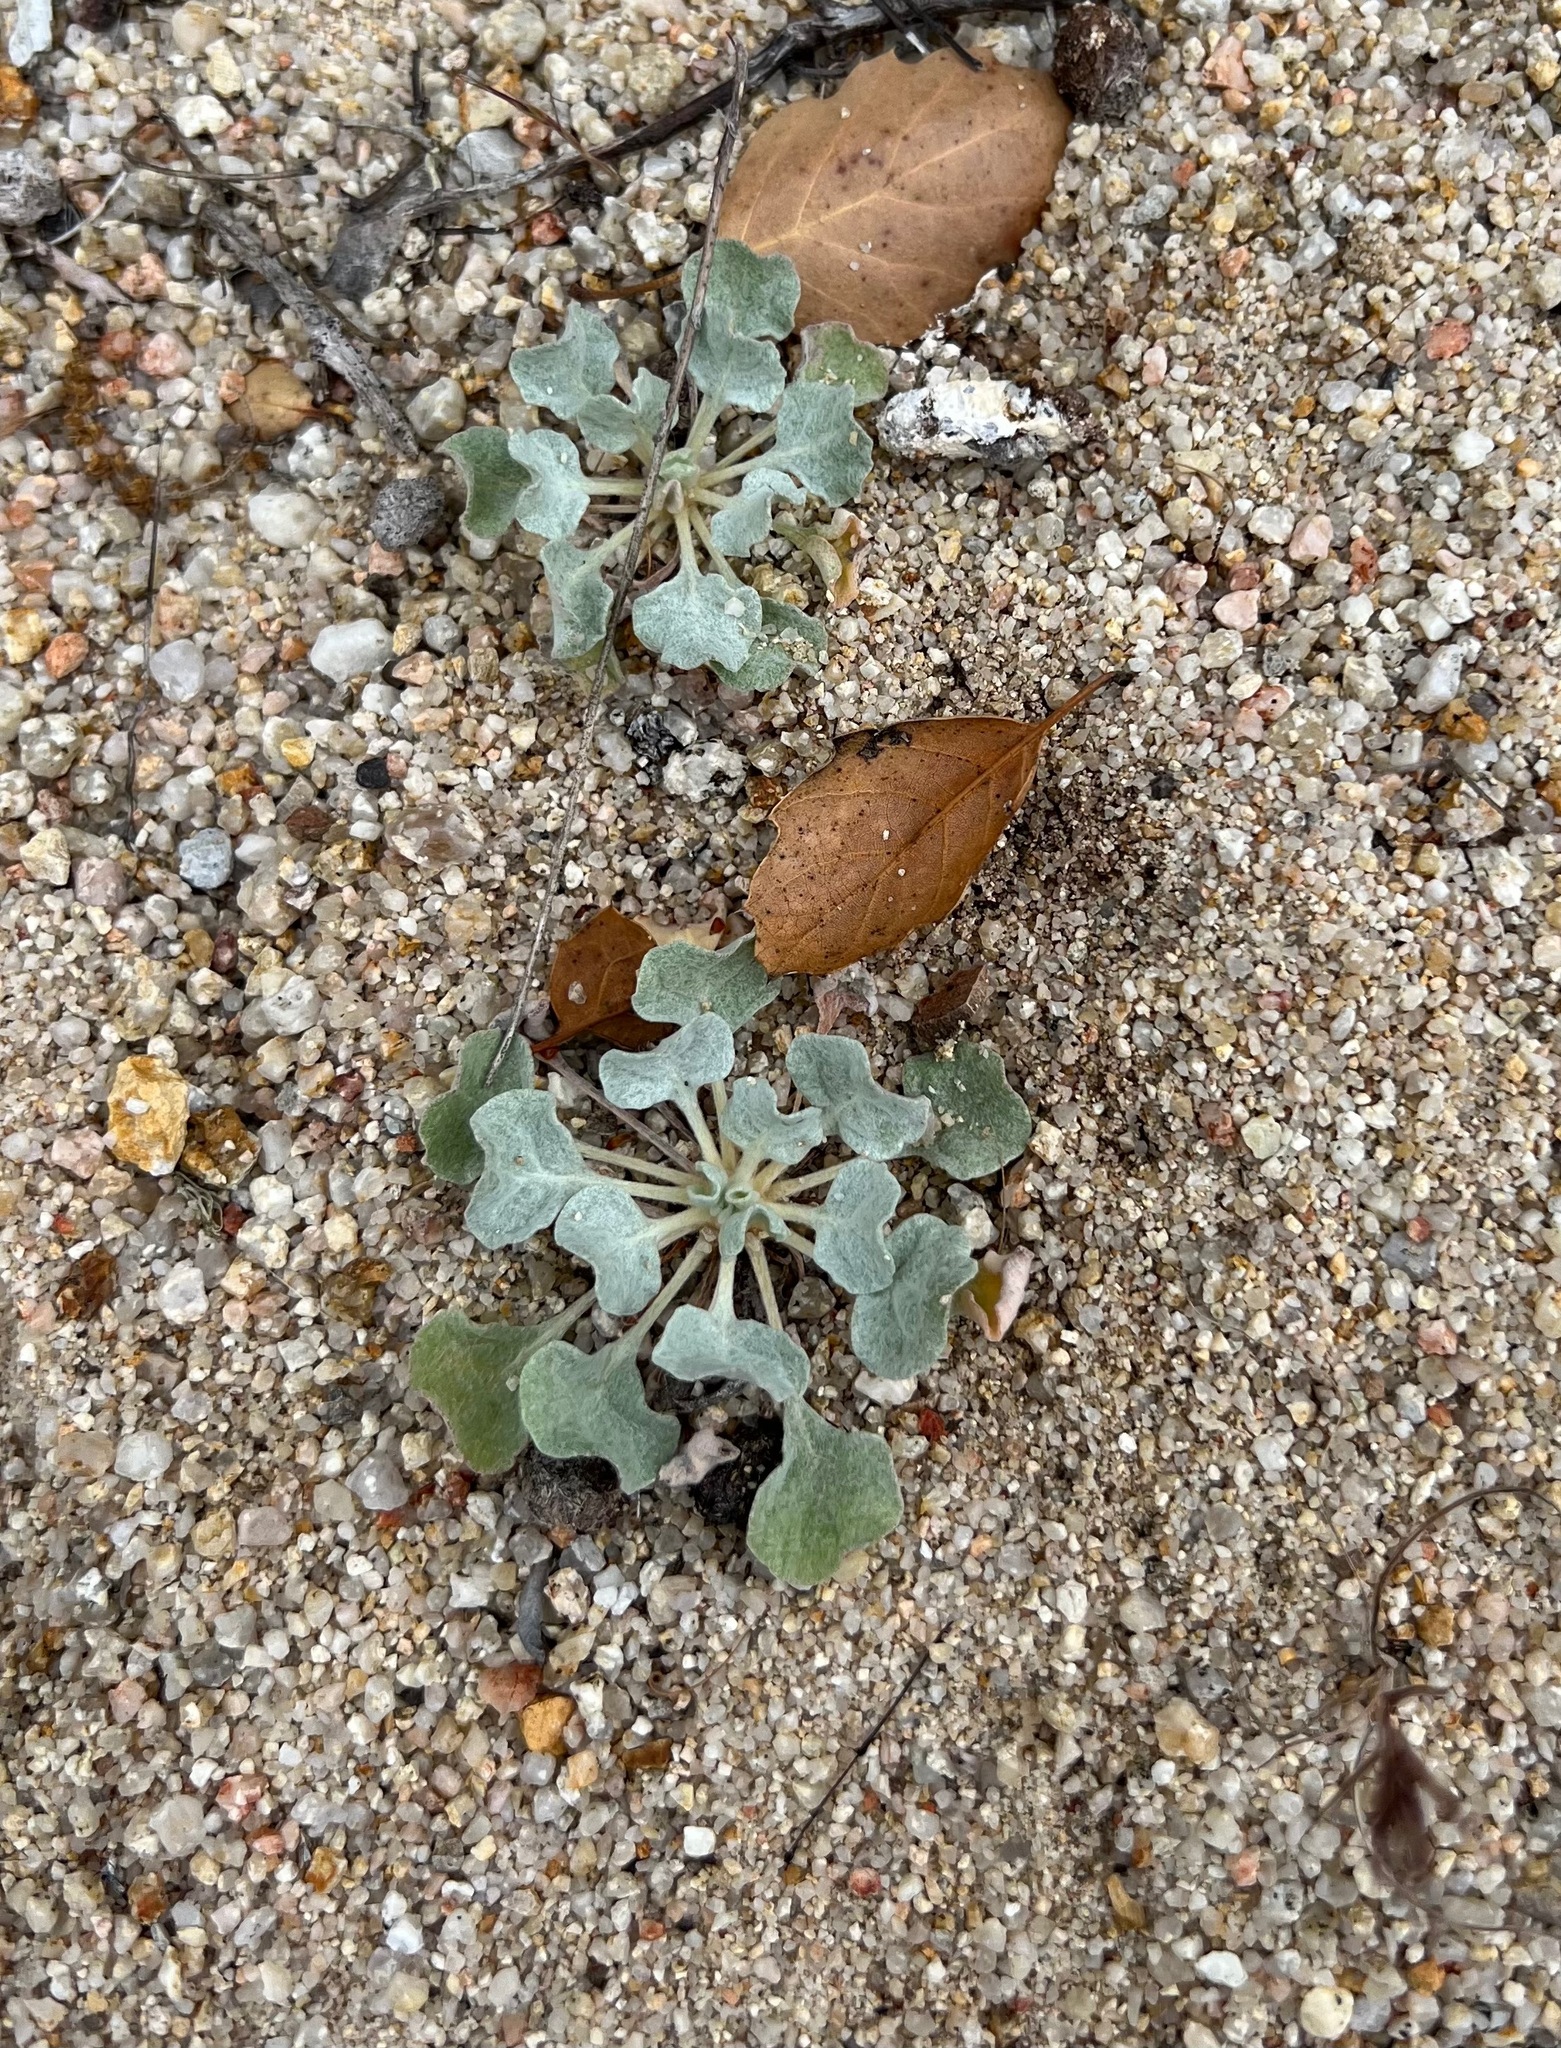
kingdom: Plantae
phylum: Tracheophyta
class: Magnoliopsida
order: Caryophyllales
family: Polygonaceae
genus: Eriogonum
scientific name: Eriogonum elegans
